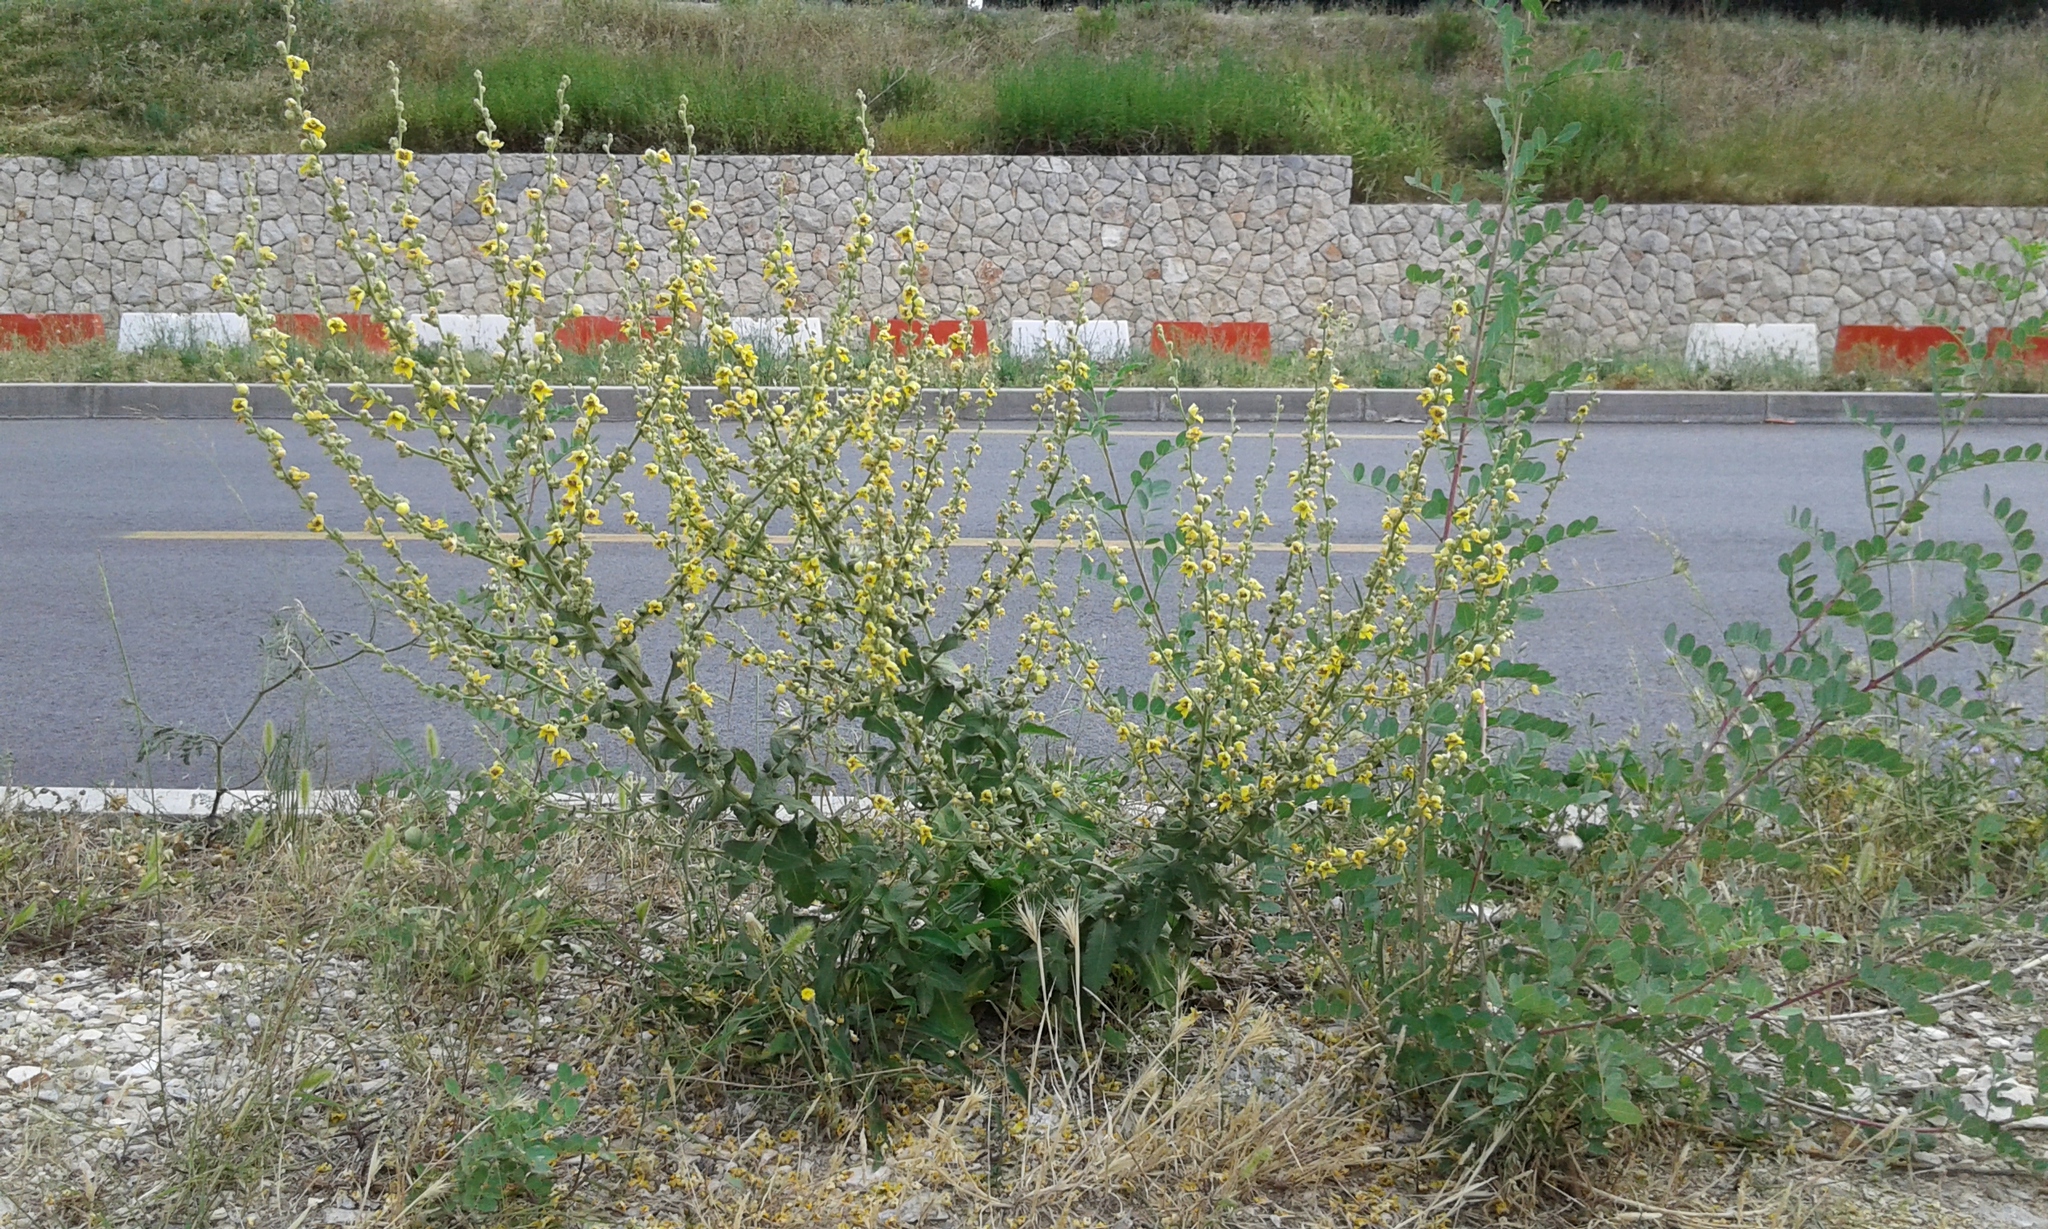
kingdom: Plantae
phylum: Tracheophyta
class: Magnoliopsida
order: Lamiales
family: Scrophulariaceae
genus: Verbascum
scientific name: Verbascum sinuatum
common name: Wavyleaf mullein
